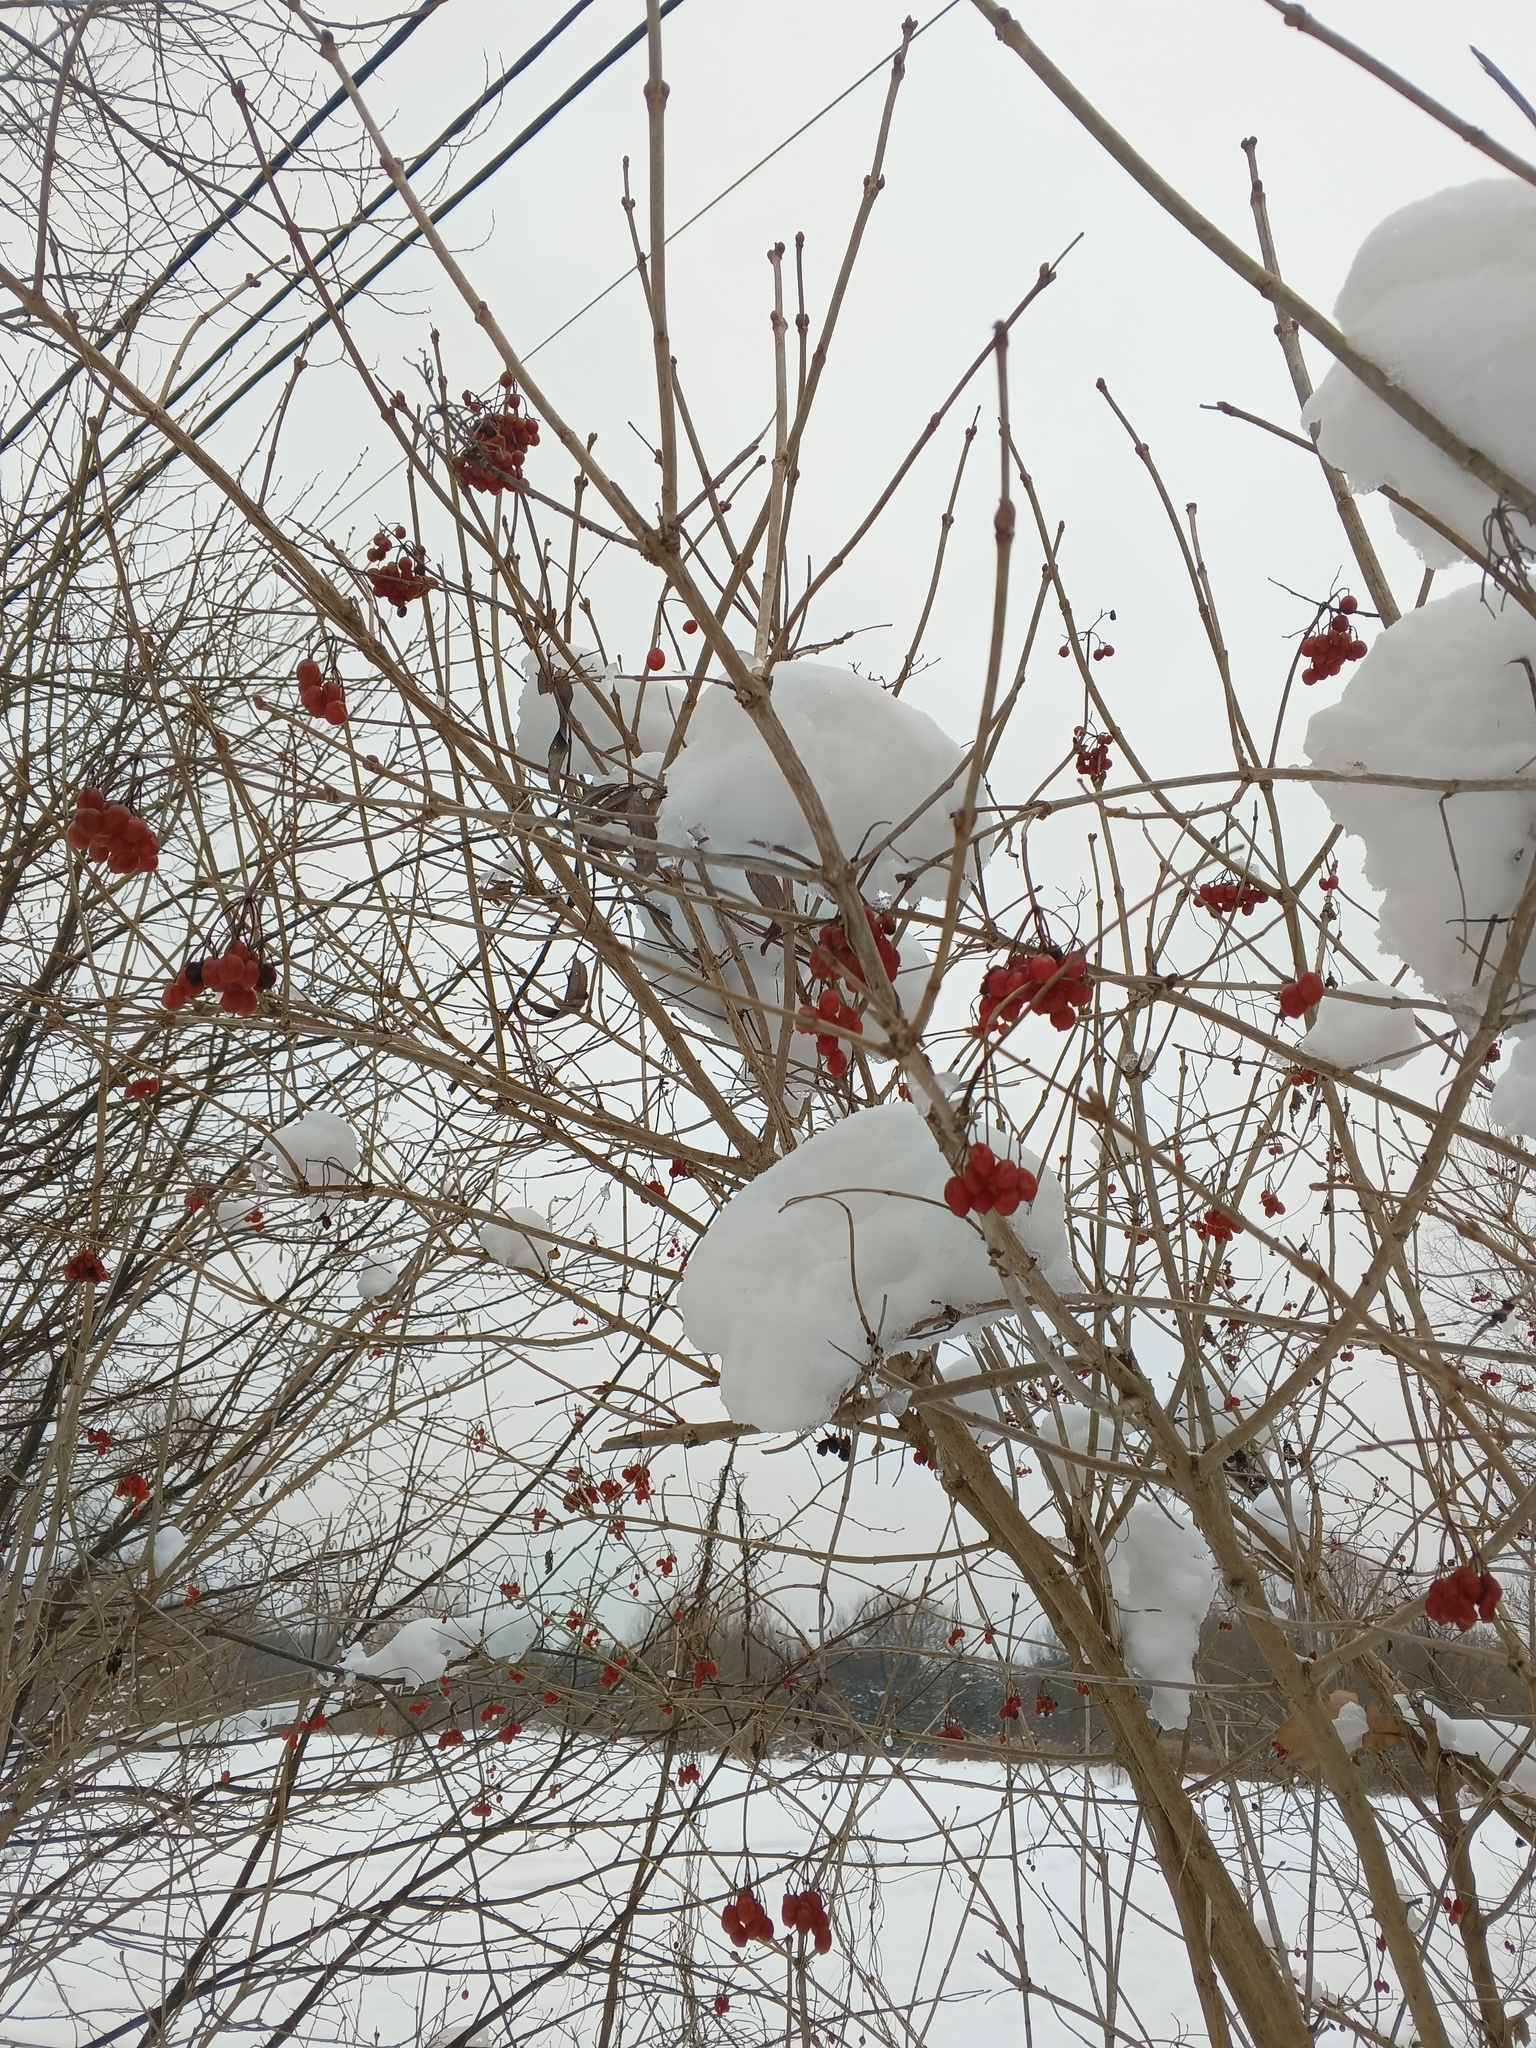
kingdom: Plantae
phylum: Tracheophyta
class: Magnoliopsida
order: Dipsacales
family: Viburnaceae
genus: Viburnum
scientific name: Viburnum opulus
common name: Guelder-rose
